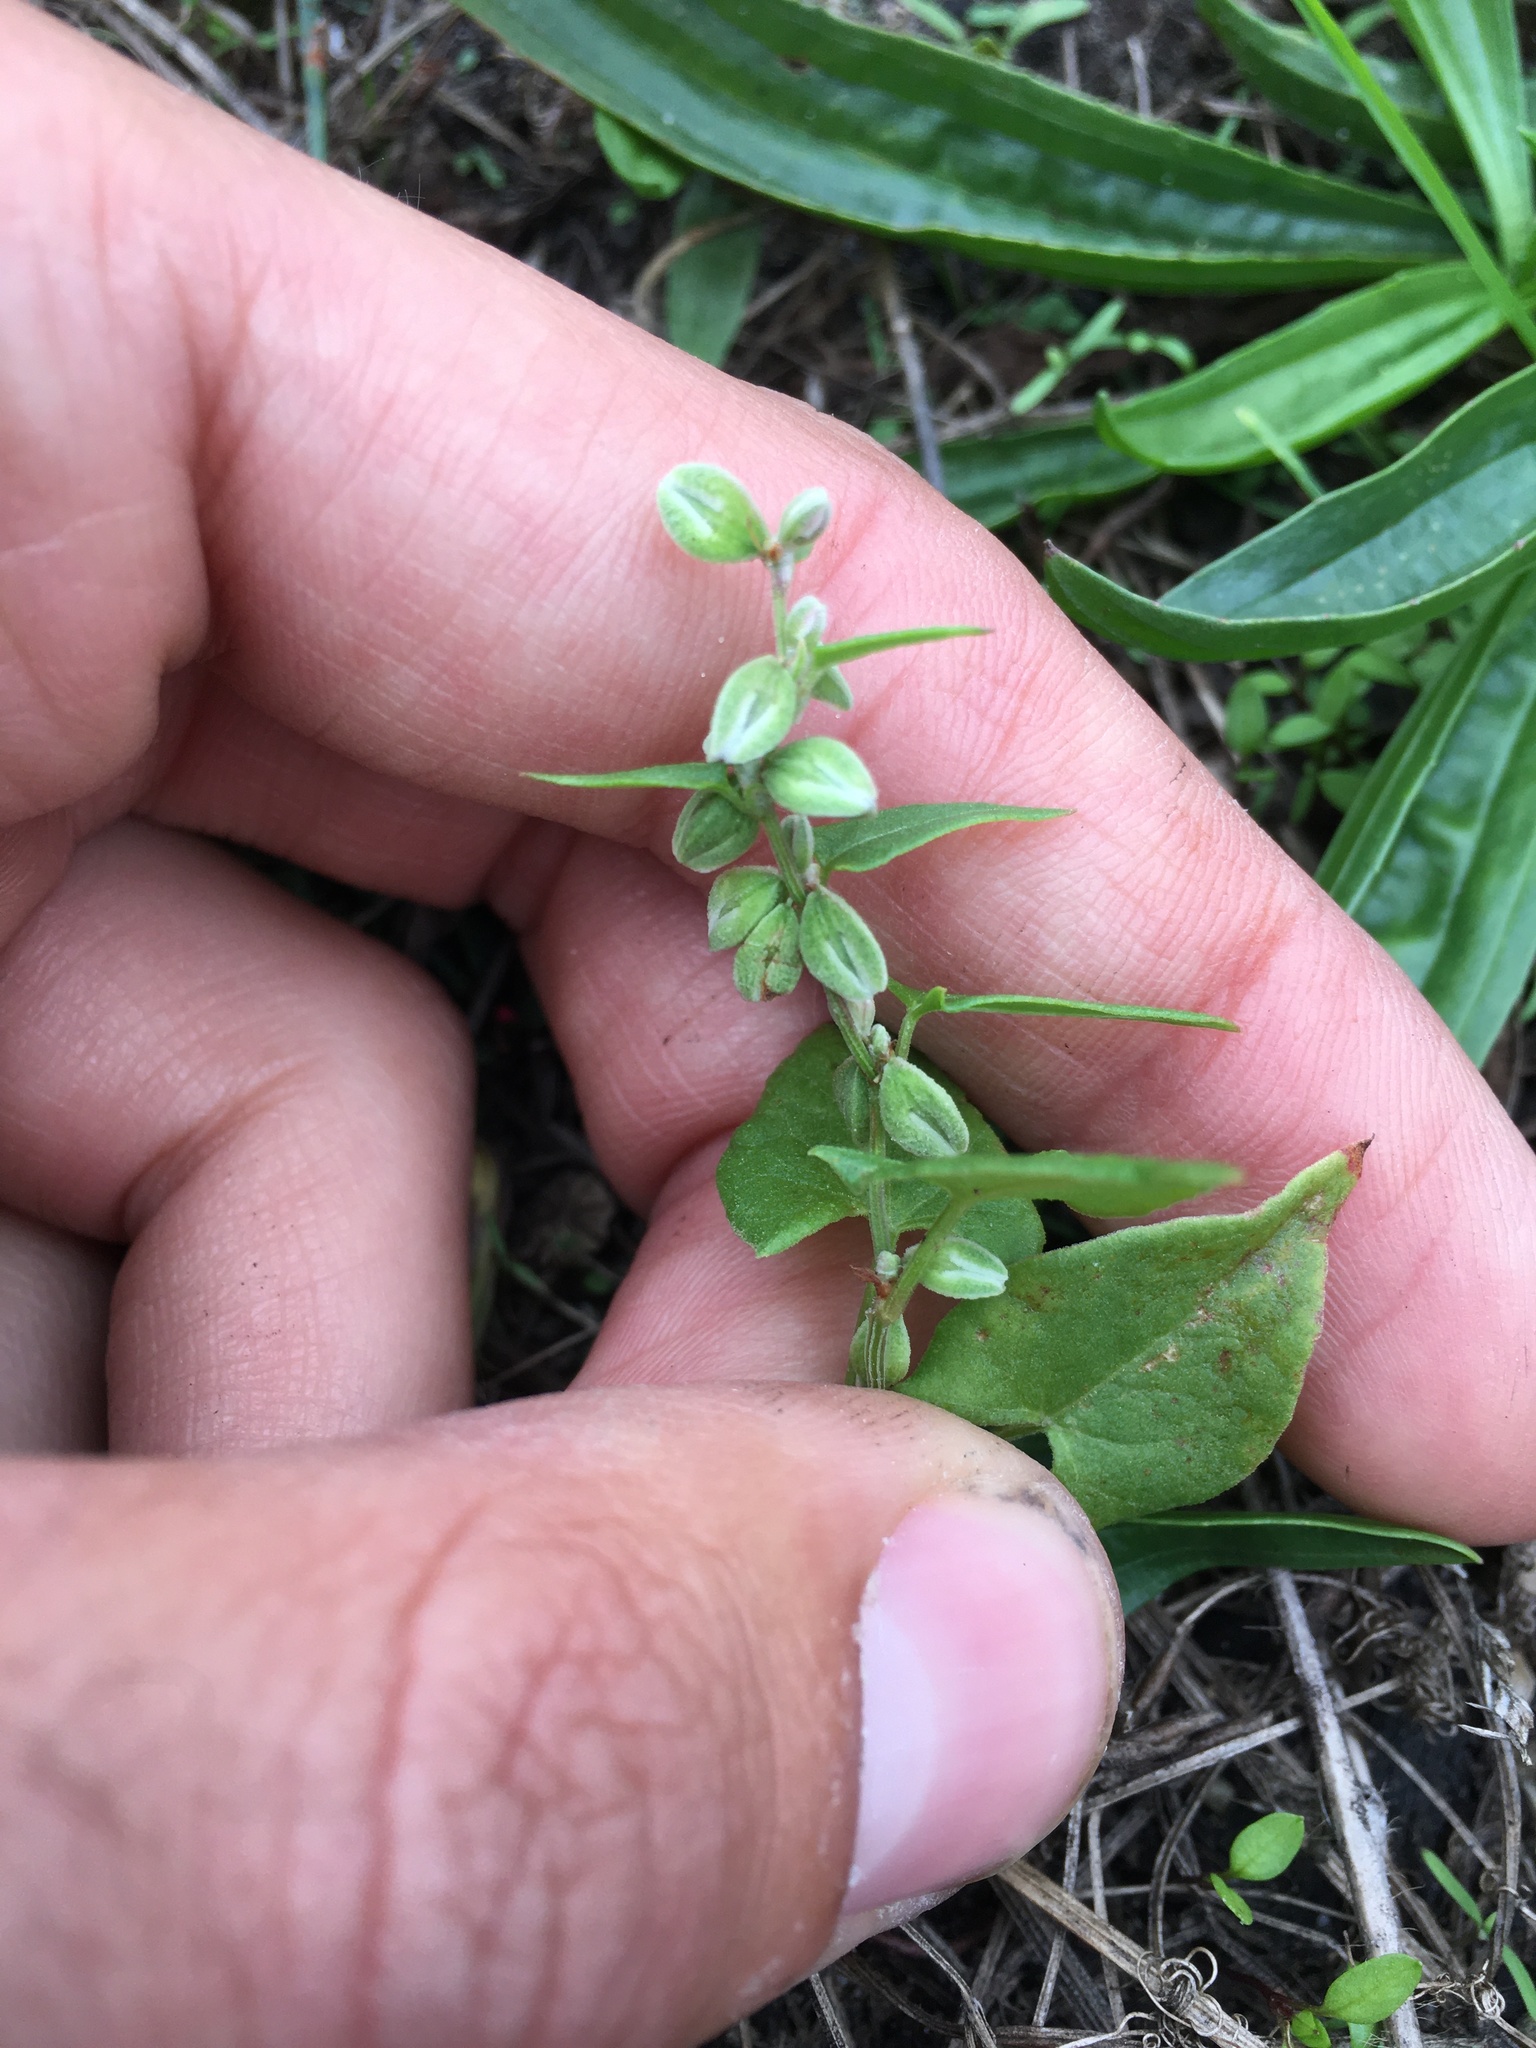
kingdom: Plantae
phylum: Tracheophyta
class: Magnoliopsida
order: Caryophyllales
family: Polygonaceae
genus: Fallopia
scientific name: Fallopia convolvulus
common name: Black bindweed
